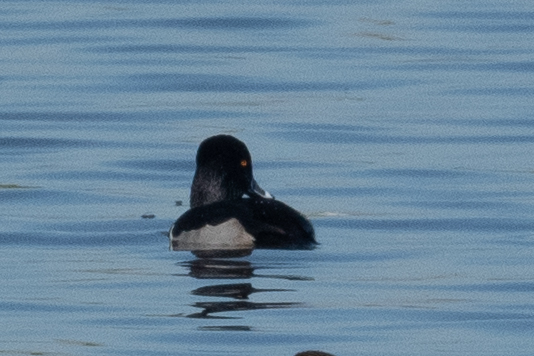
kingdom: Animalia
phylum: Chordata
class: Aves
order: Anseriformes
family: Anatidae
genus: Aythya
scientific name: Aythya collaris
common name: Ring-necked duck
